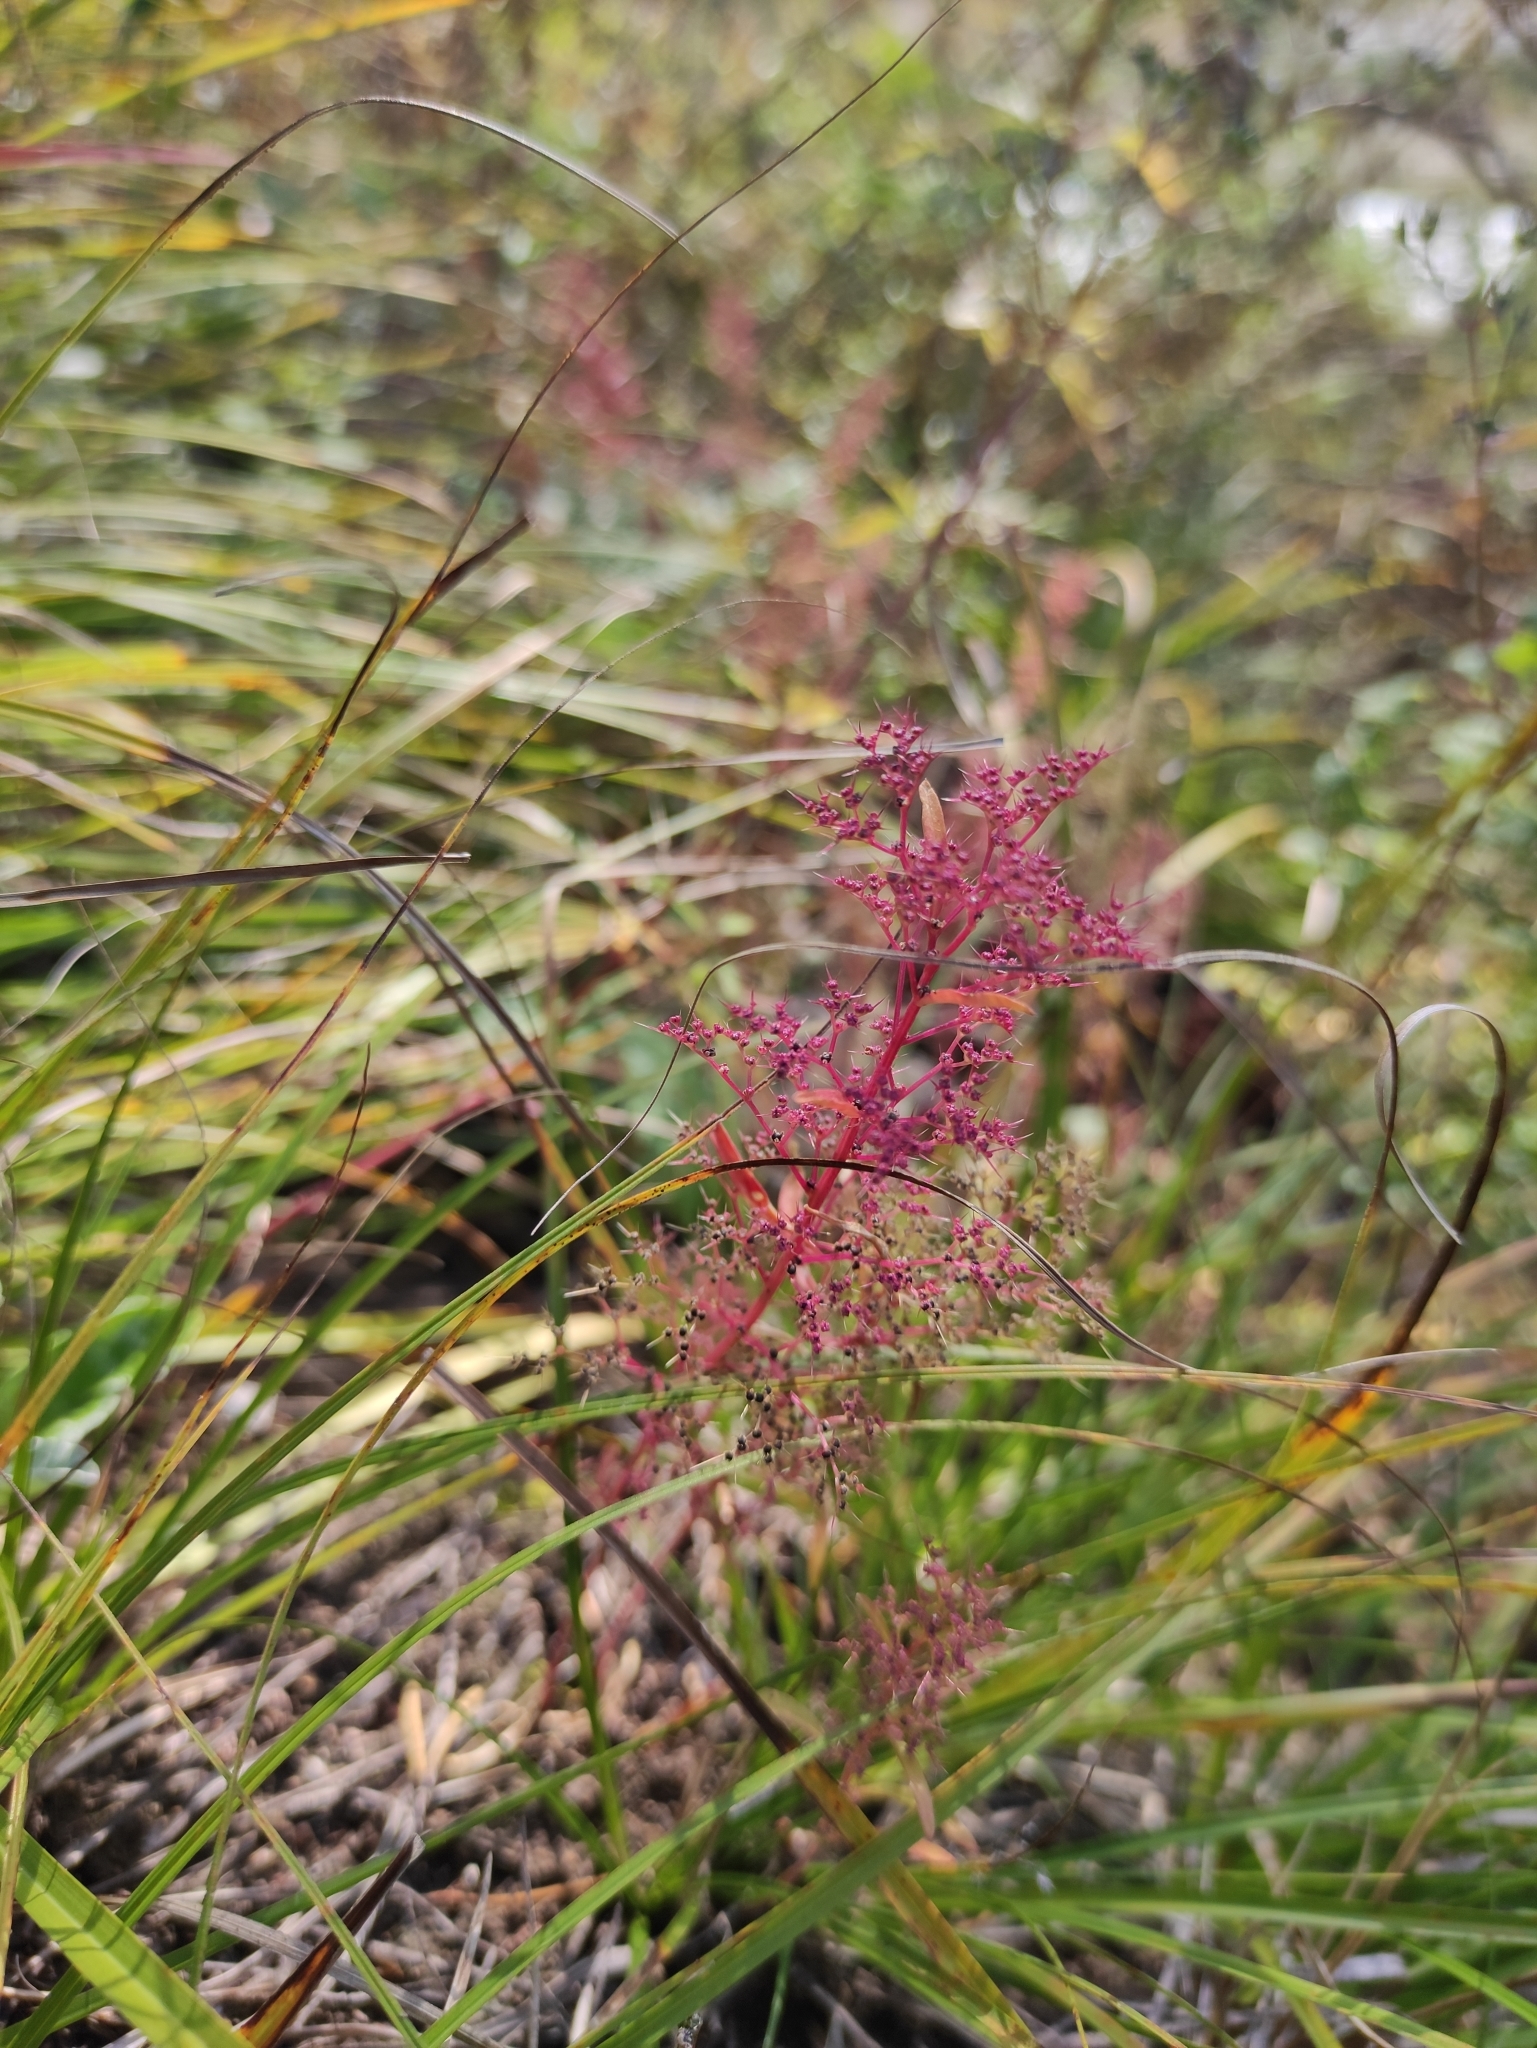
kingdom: Plantae
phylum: Tracheophyta
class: Magnoliopsida
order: Caryophyllales
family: Amaranthaceae
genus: Teloxys
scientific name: Teloxys aristata
